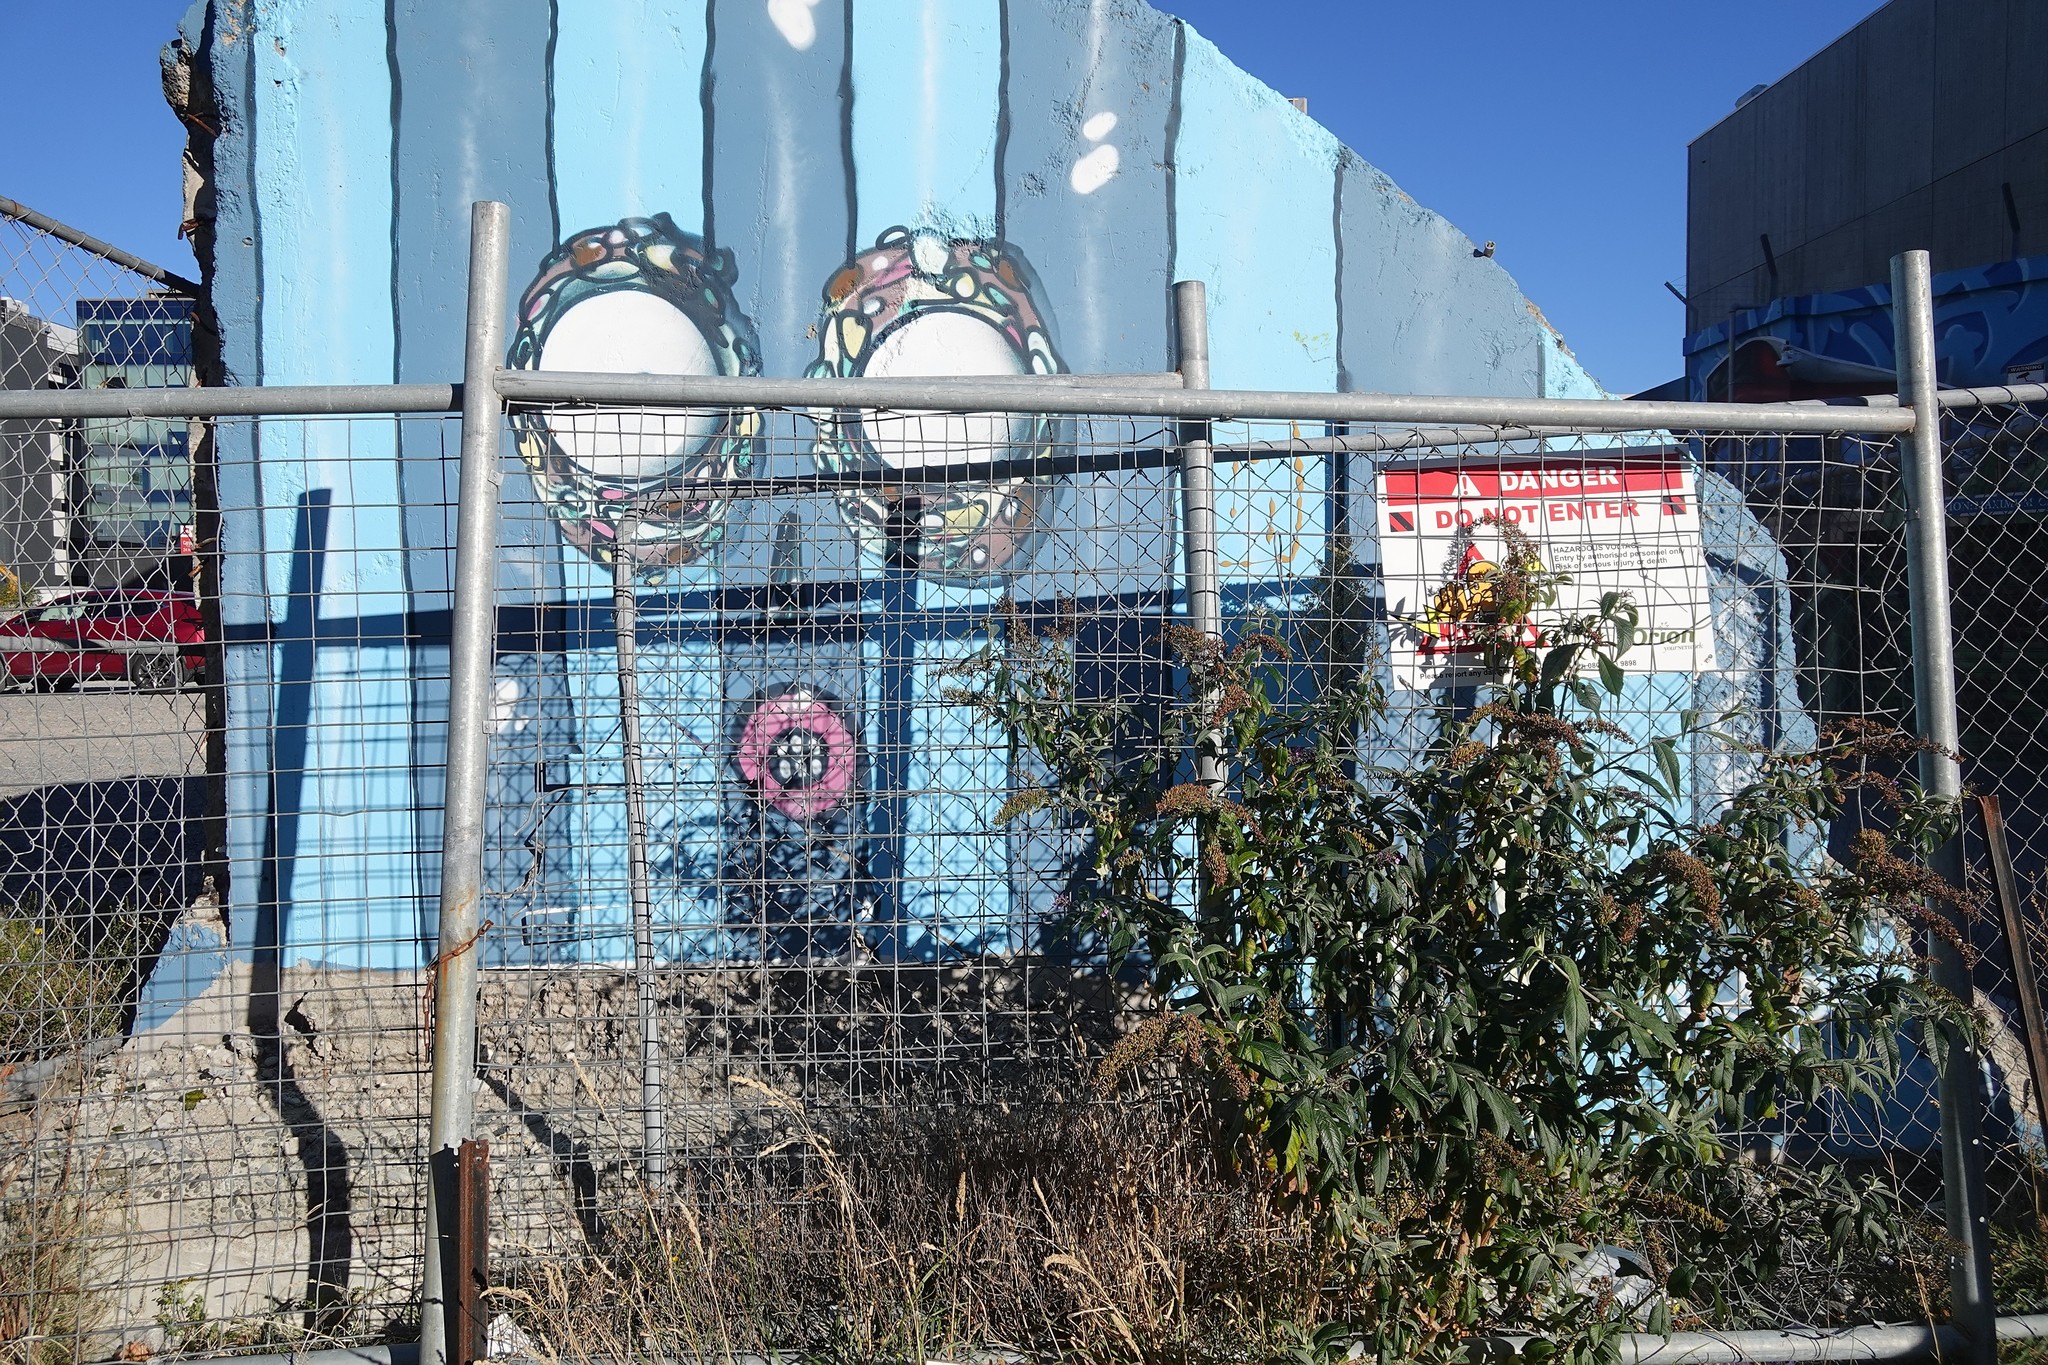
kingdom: Plantae
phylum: Tracheophyta
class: Magnoliopsida
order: Lamiales
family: Scrophulariaceae
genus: Buddleja
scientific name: Buddleja davidii
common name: Butterfly-bush
